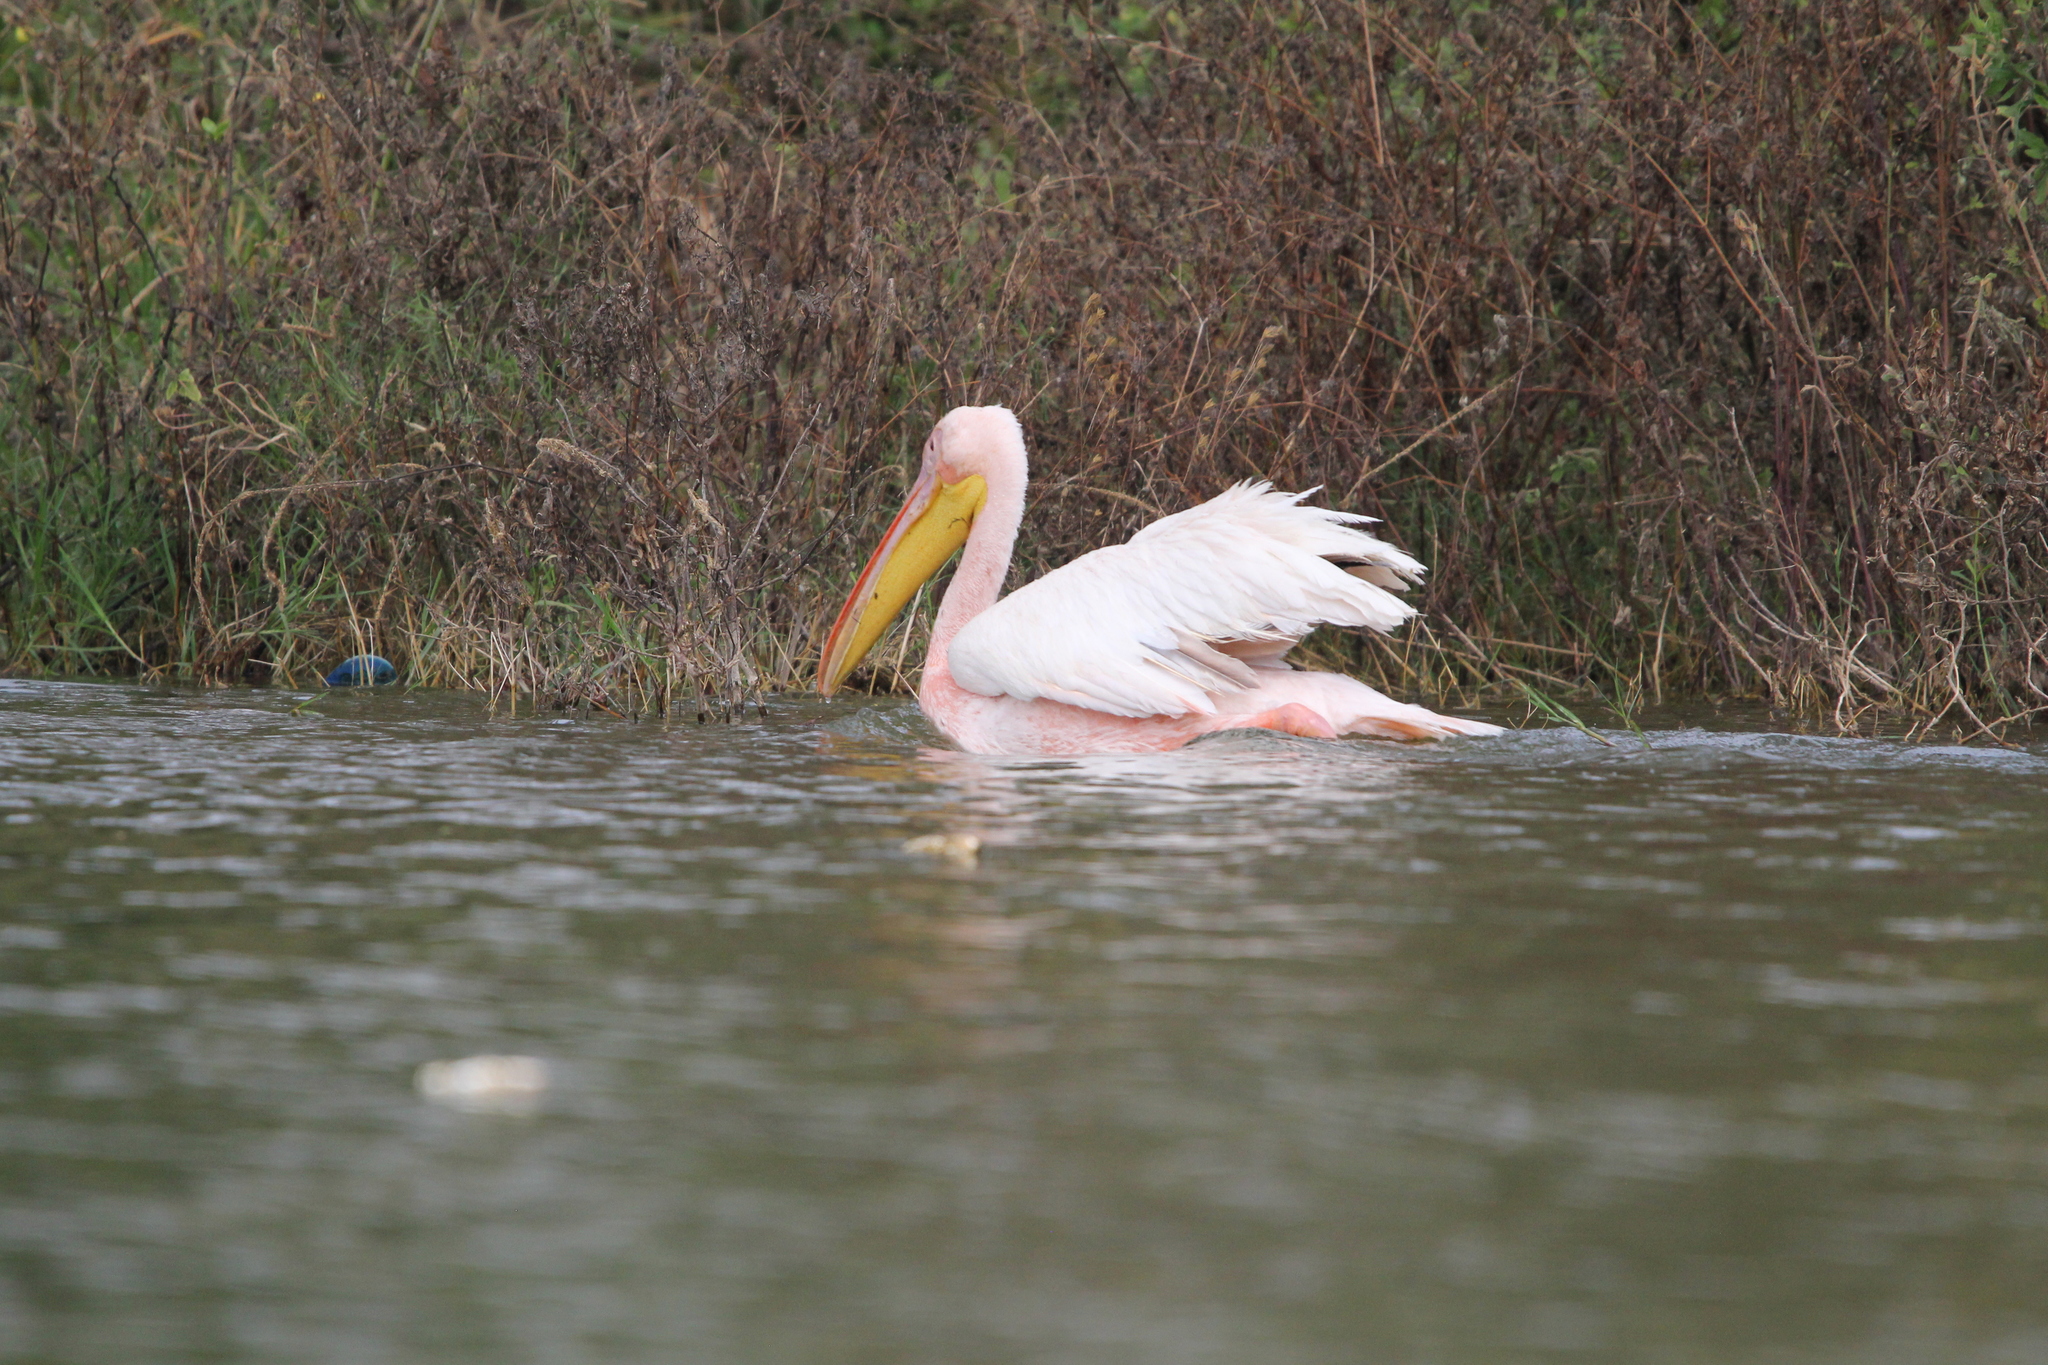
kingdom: Animalia
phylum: Chordata
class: Aves
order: Pelecaniformes
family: Pelecanidae
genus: Pelecanus
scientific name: Pelecanus onocrotalus
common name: Great white pelican
